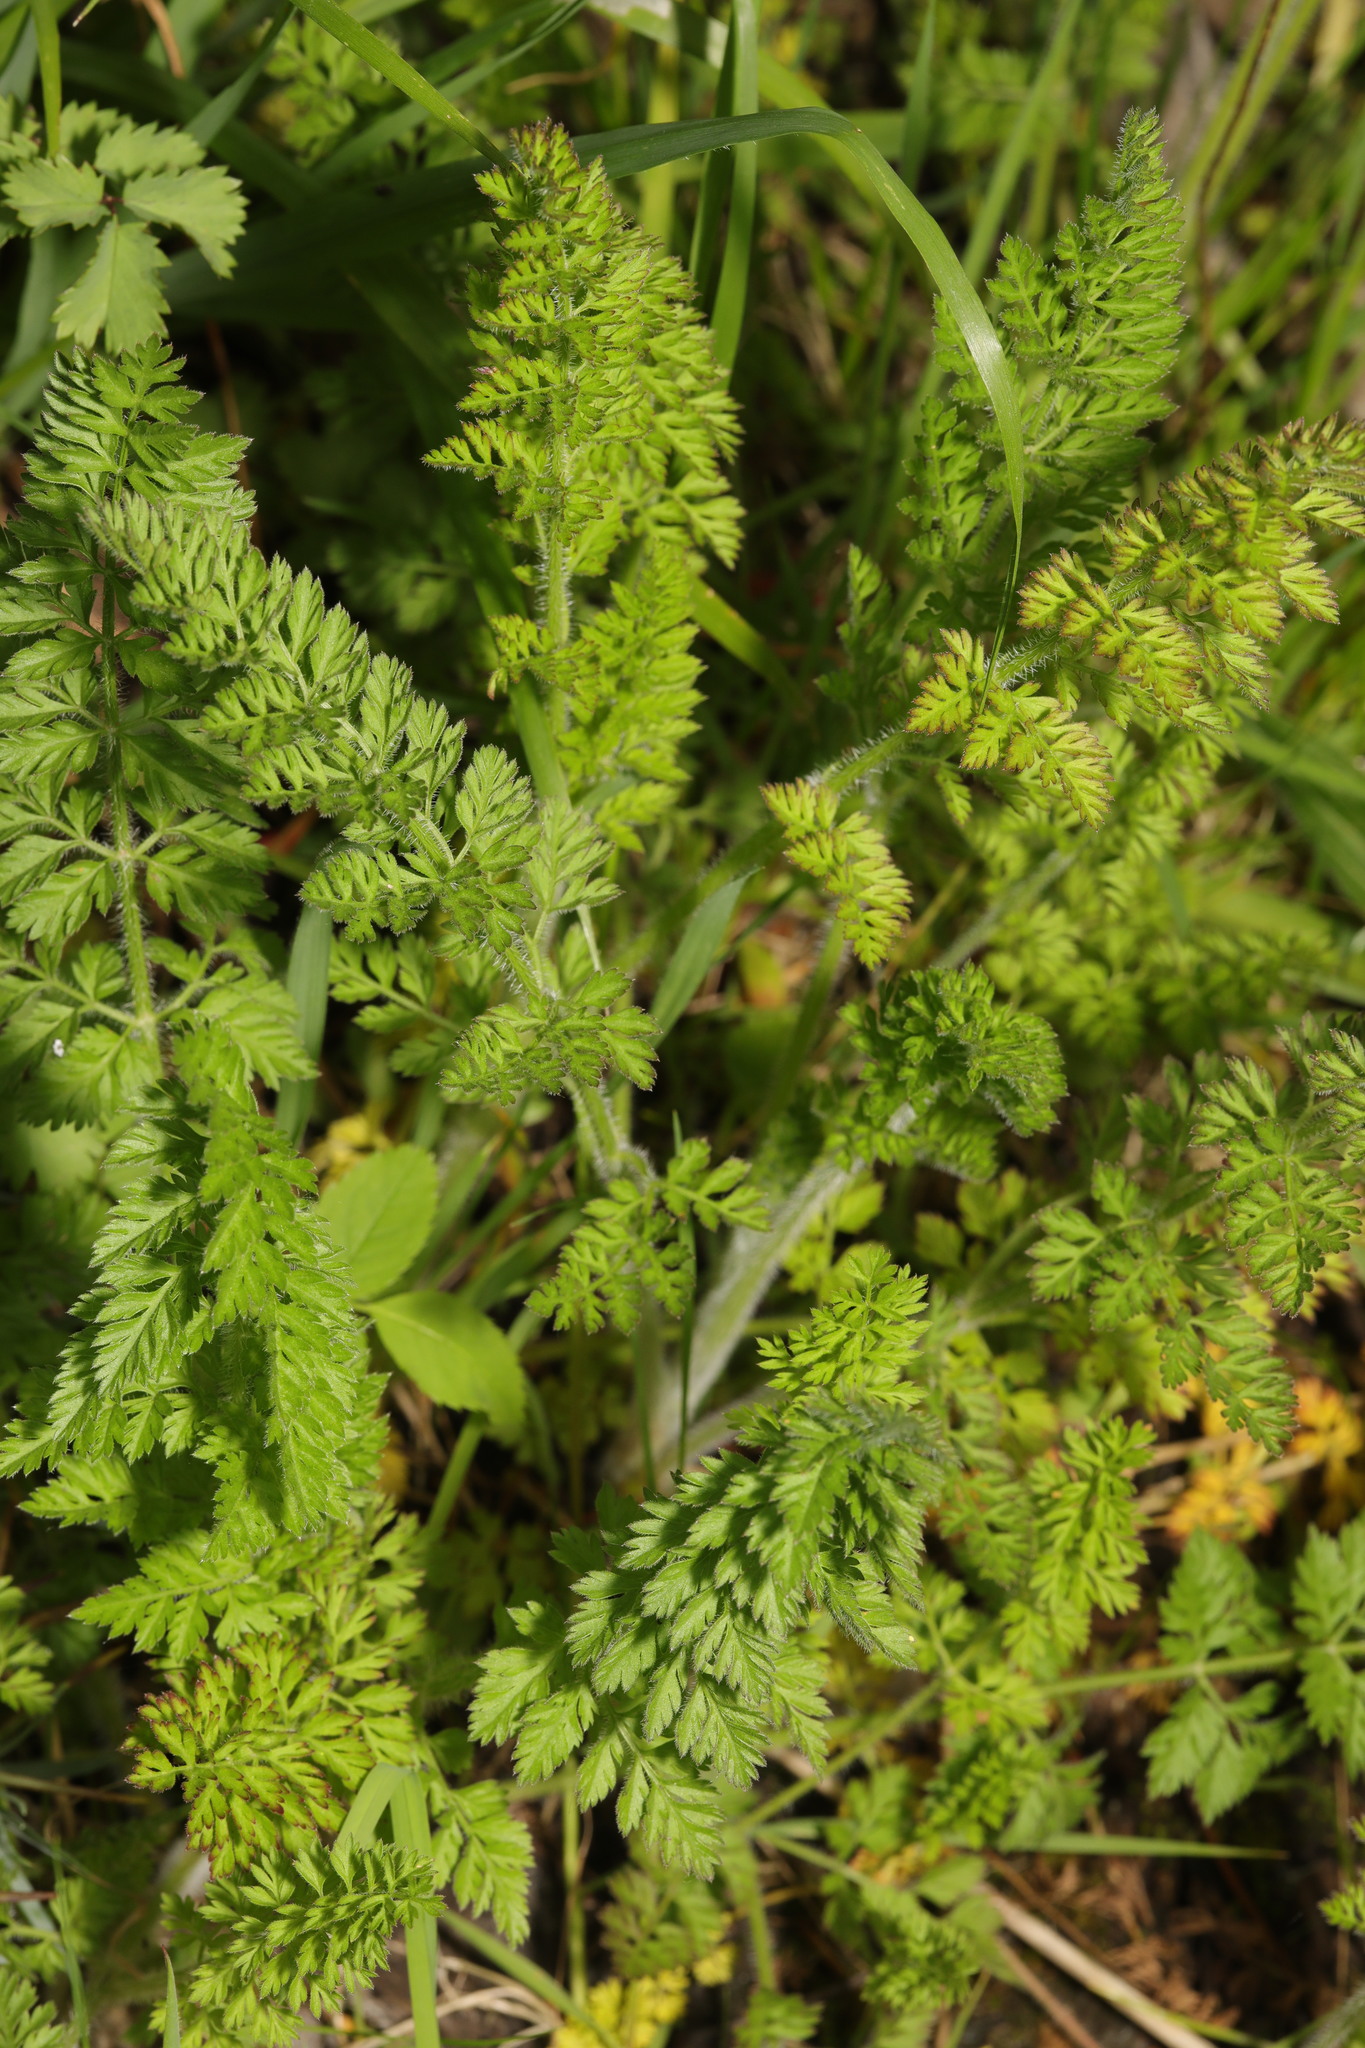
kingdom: Plantae
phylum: Tracheophyta
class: Magnoliopsida
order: Apiales
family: Apiaceae
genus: Chaerophyllum
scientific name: Chaerophyllum temulum
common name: Rough chervil
